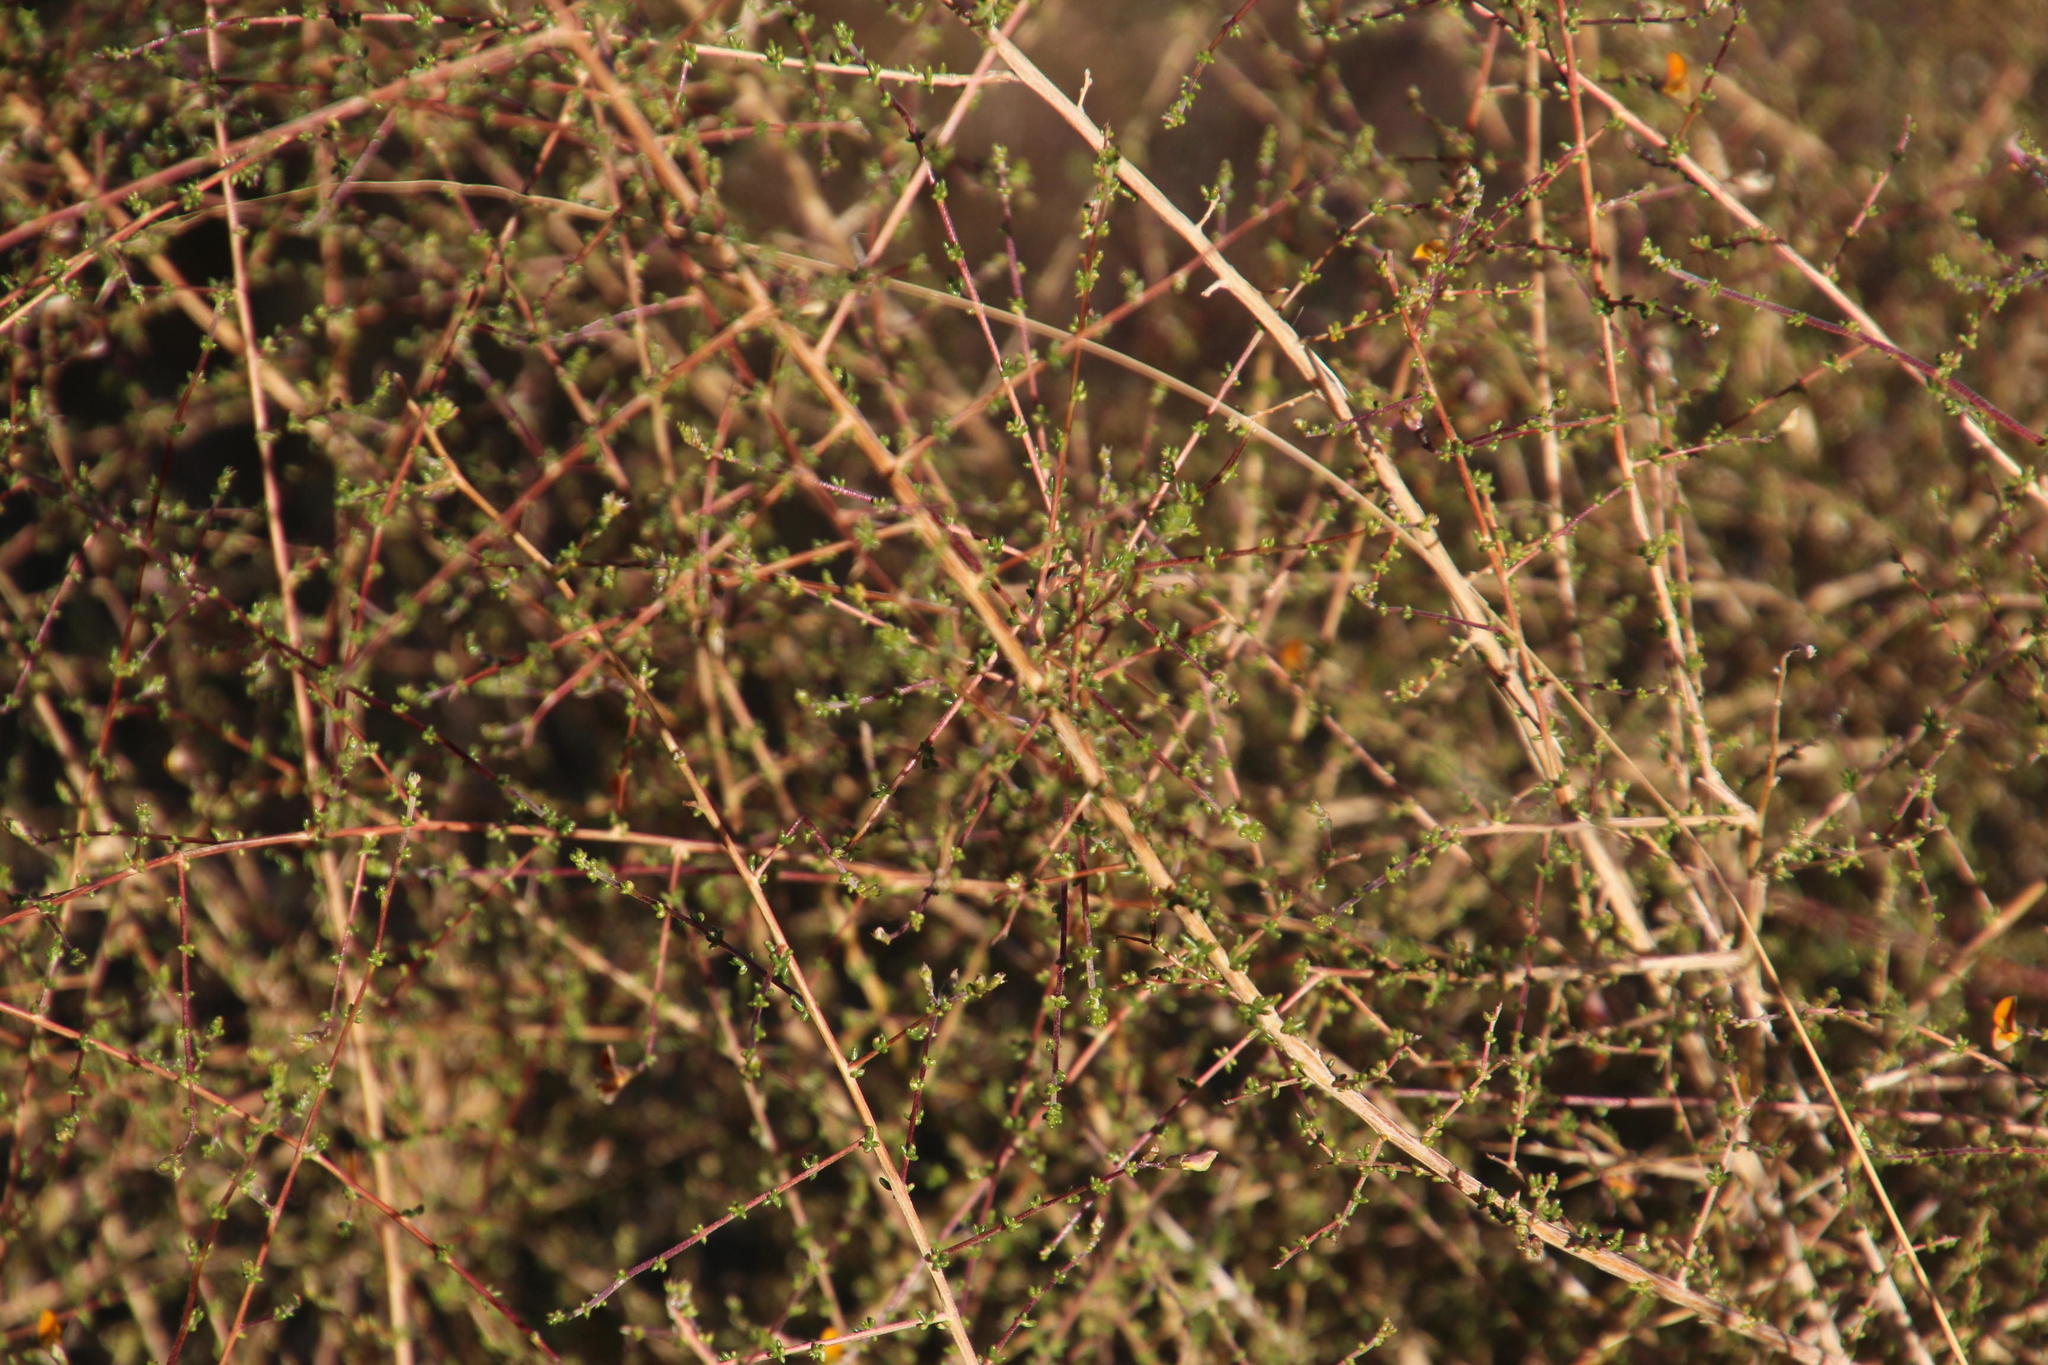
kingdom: Plantae
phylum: Tracheophyta
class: Magnoliopsida
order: Fabales
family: Fabaceae
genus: Aspalathus
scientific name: Aspalathus divaricata
